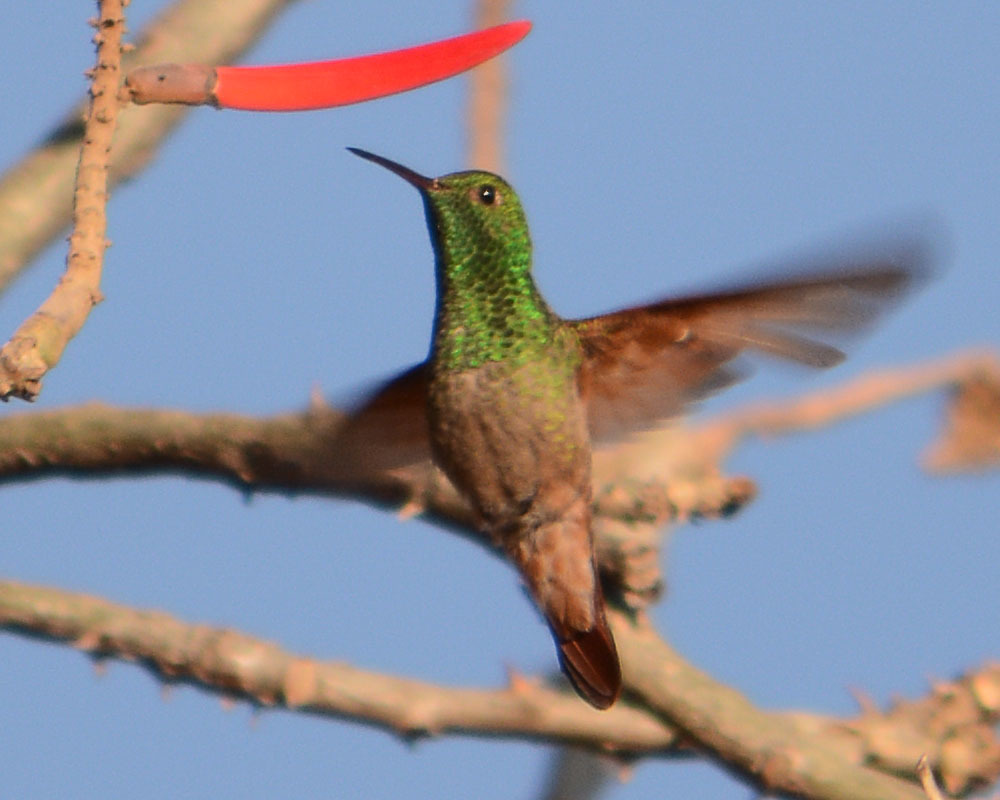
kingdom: Animalia
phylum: Chordata
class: Aves
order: Apodiformes
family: Trochilidae
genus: Saucerottia
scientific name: Saucerottia beryllina
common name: Berylline hummingbird
